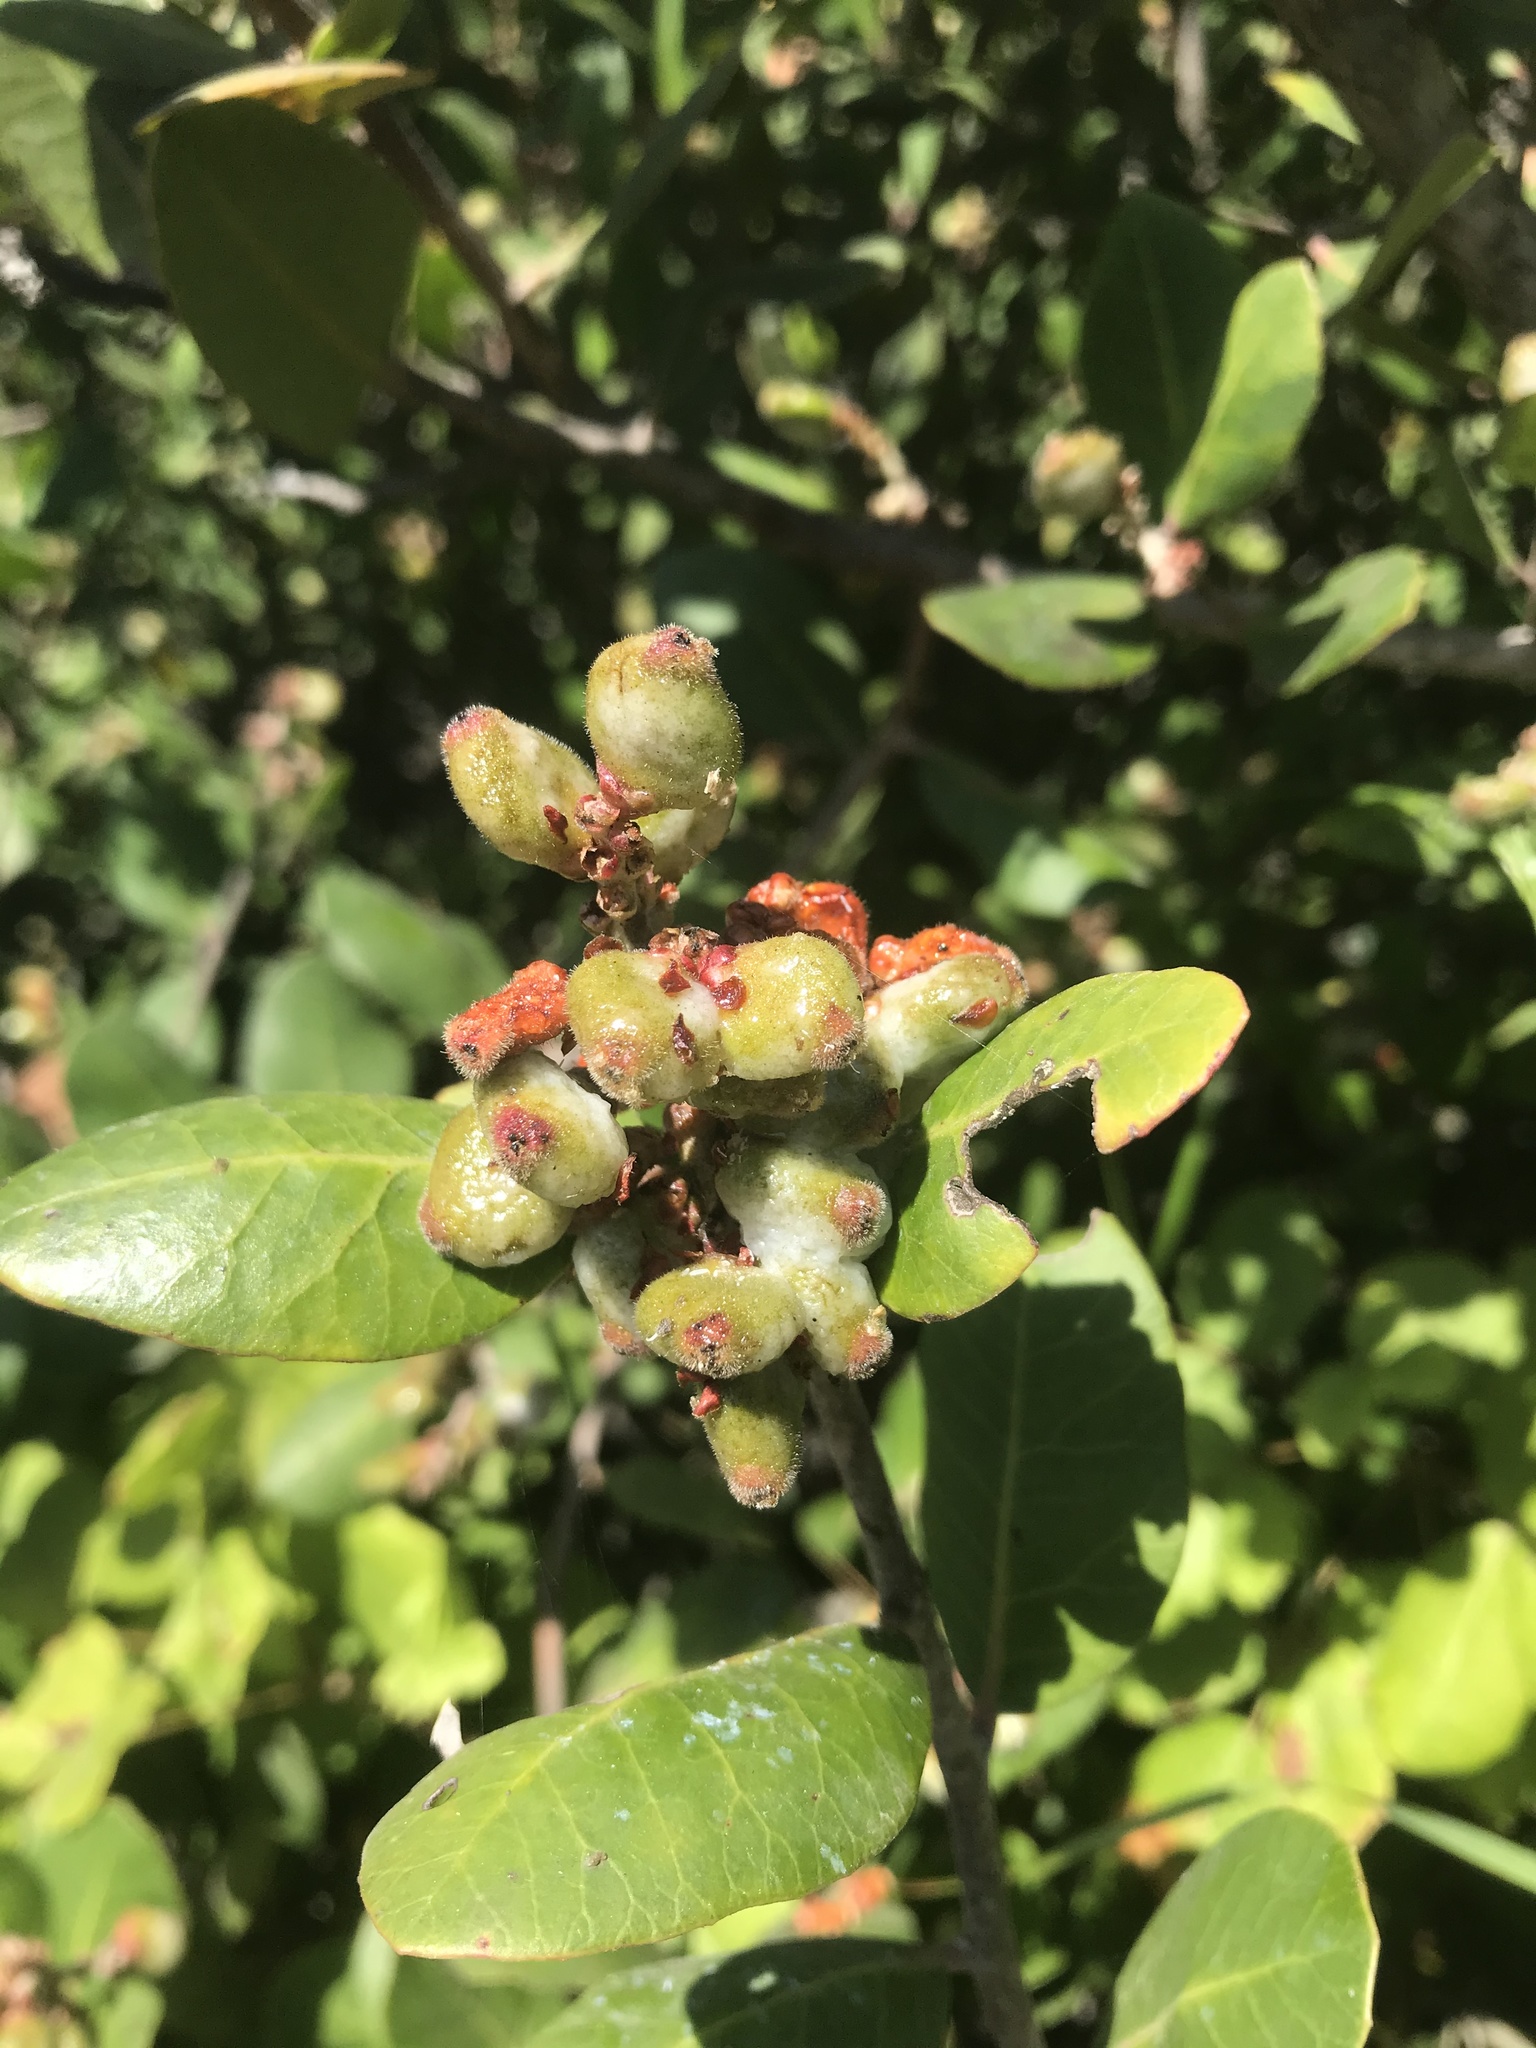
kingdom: Plantae
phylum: Tracheophyta
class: Magnoliopsida
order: Sapindales
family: Anacardiaceae
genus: Rhus
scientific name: Rhus integrifolia
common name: Lemonade sumac
